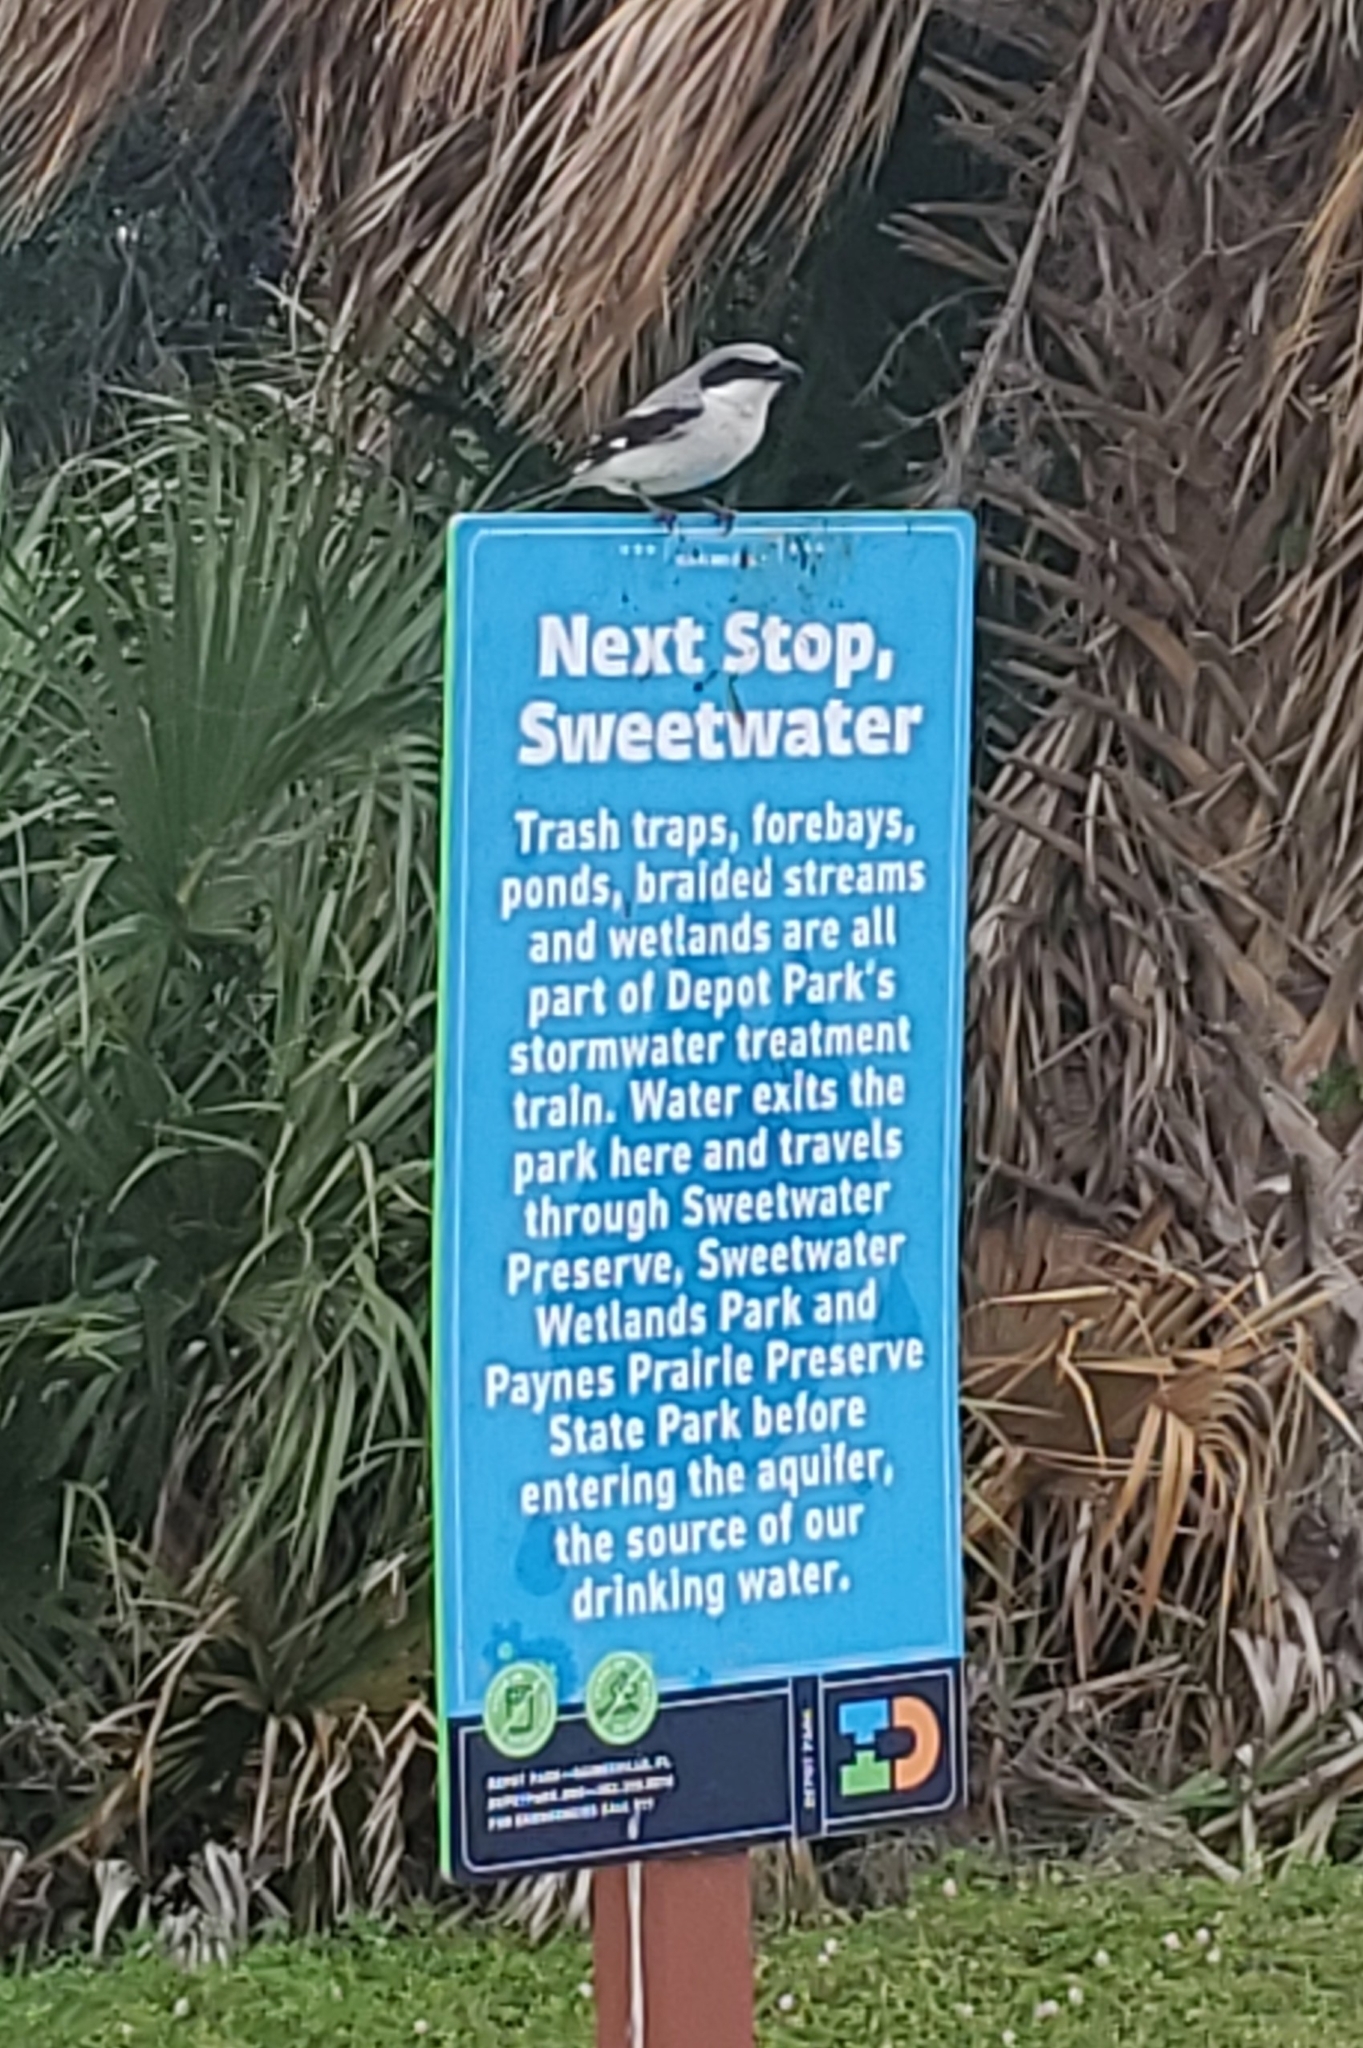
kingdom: Animalia
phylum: Chordata
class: Aves
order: Passeriformes
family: Laniidae
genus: Lanius
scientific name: Lanius ludovicianus
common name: Loggerhead shrike
